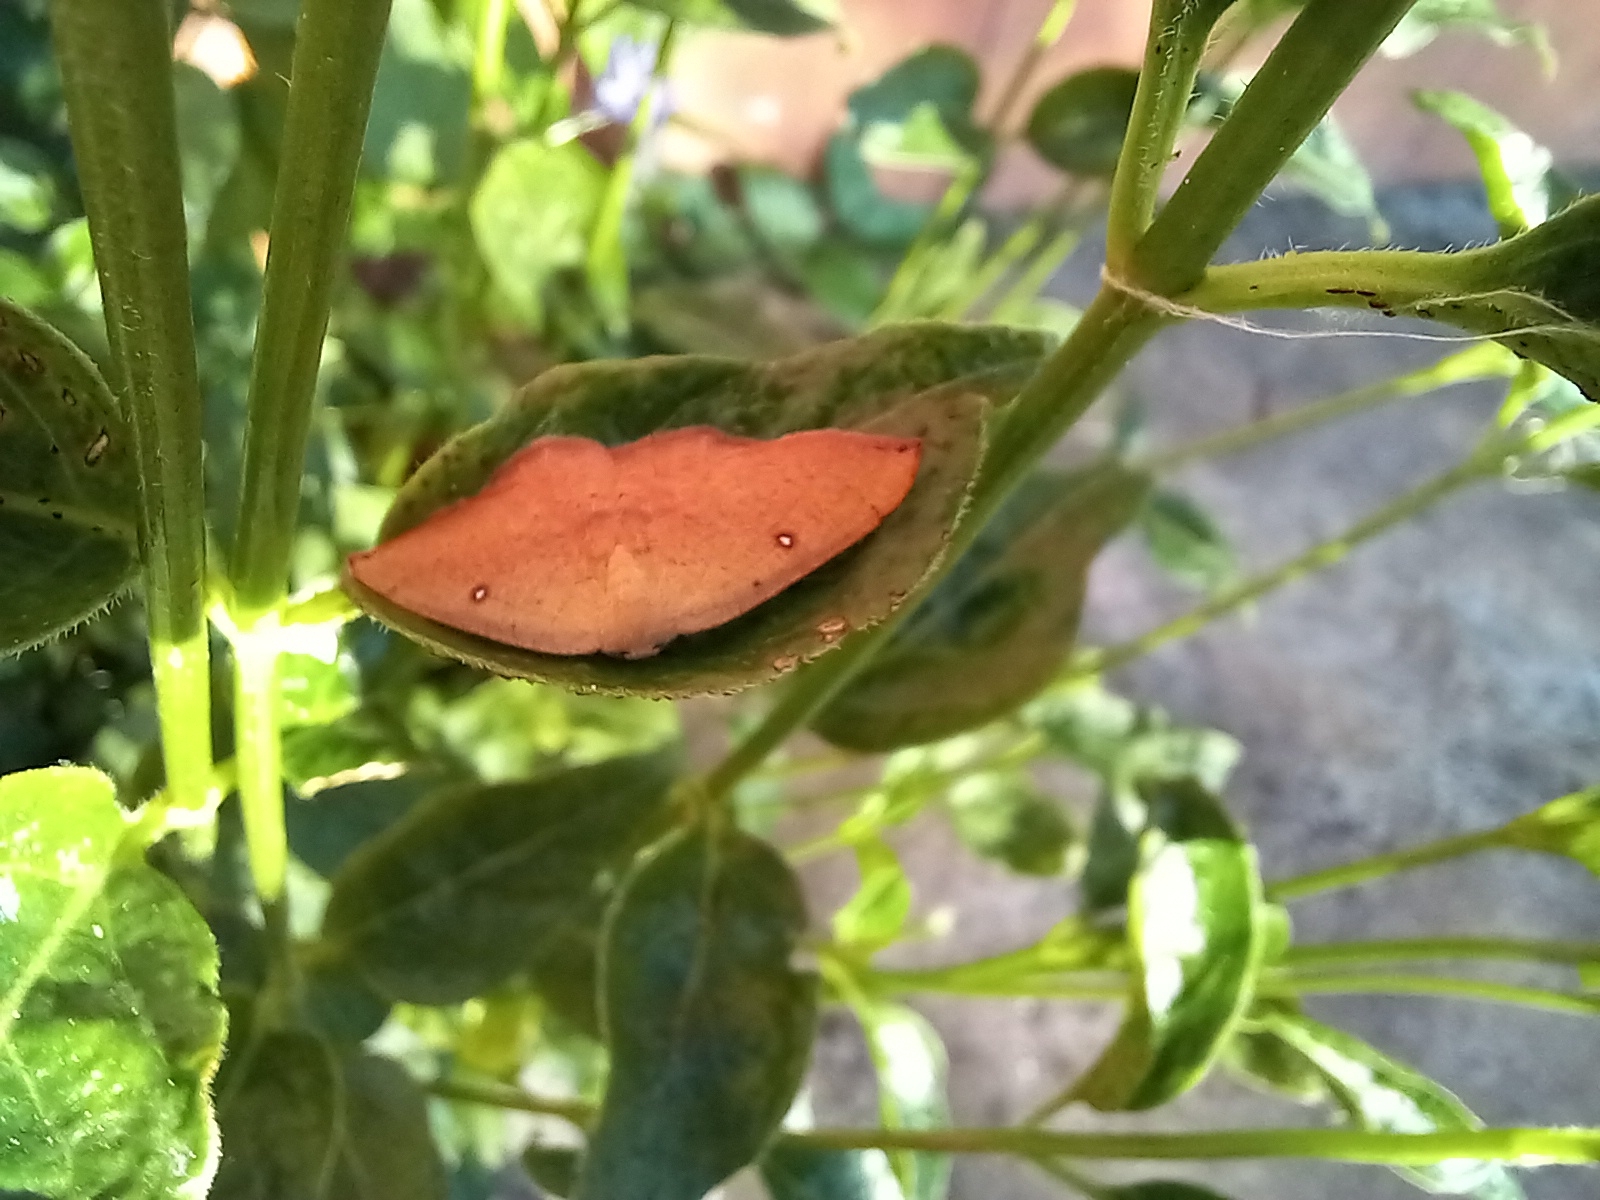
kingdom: Animalia
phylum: Arthropoda
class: Insecta
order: Lepidoptera
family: Geometridae
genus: Cyclophora
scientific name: Cyclophora puppillaria
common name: Blair's mocha
